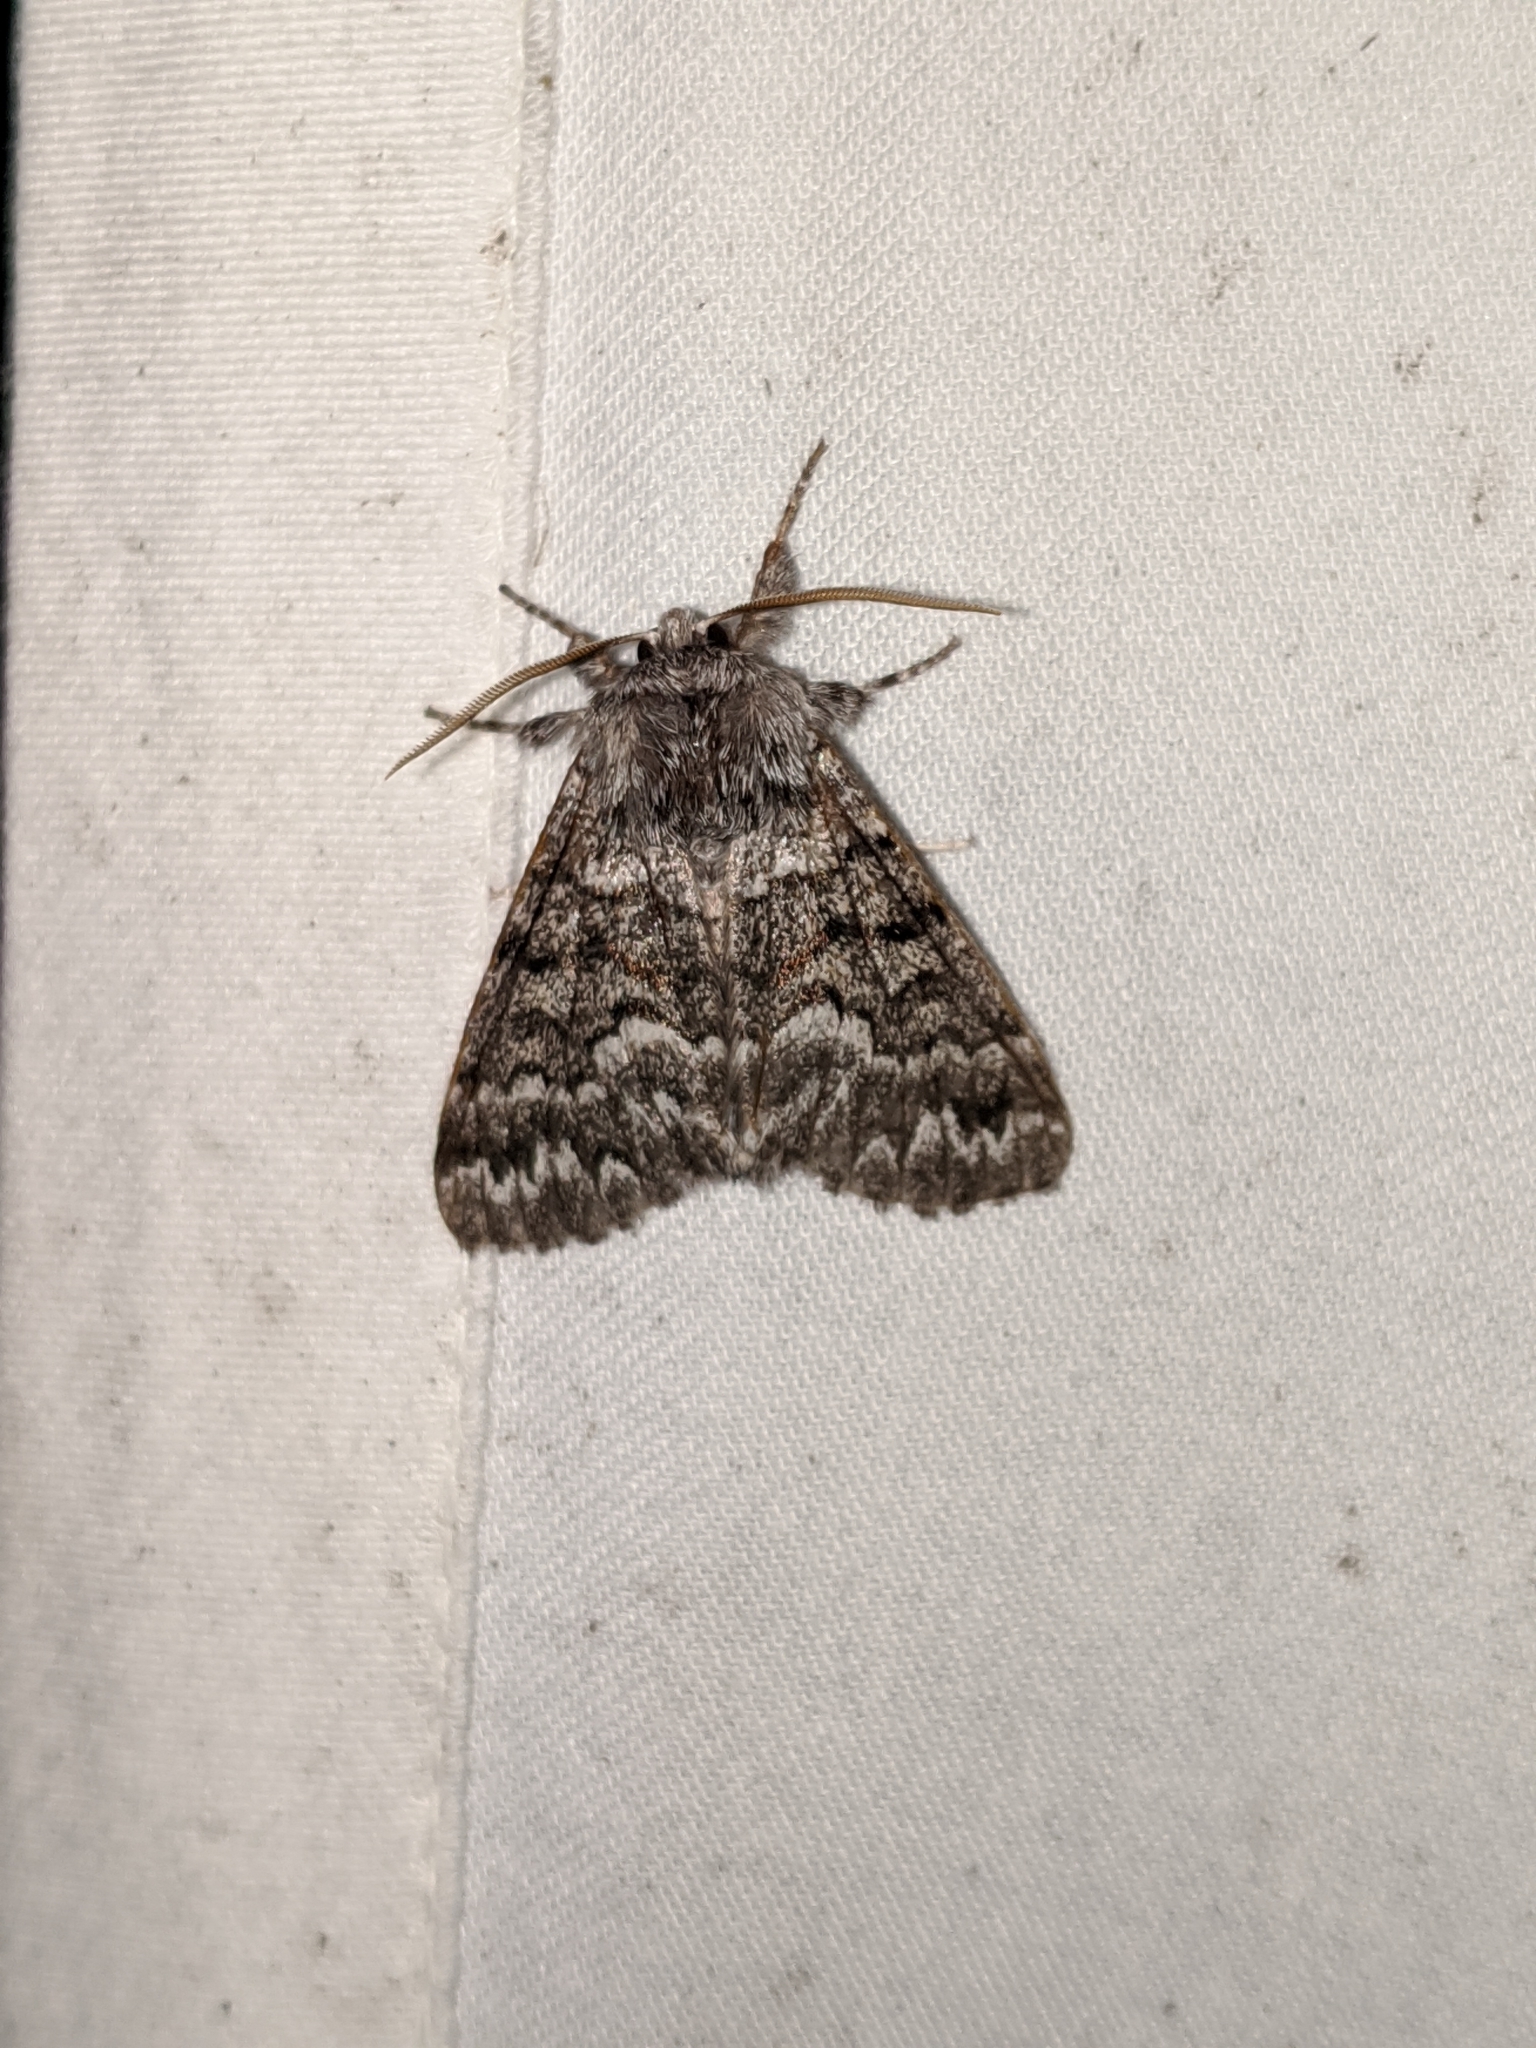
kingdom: Animalia
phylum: Arthropoda
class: Insecta
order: Lepidoptera
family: Noctuidae
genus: Panthea
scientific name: Panthea virginarius
